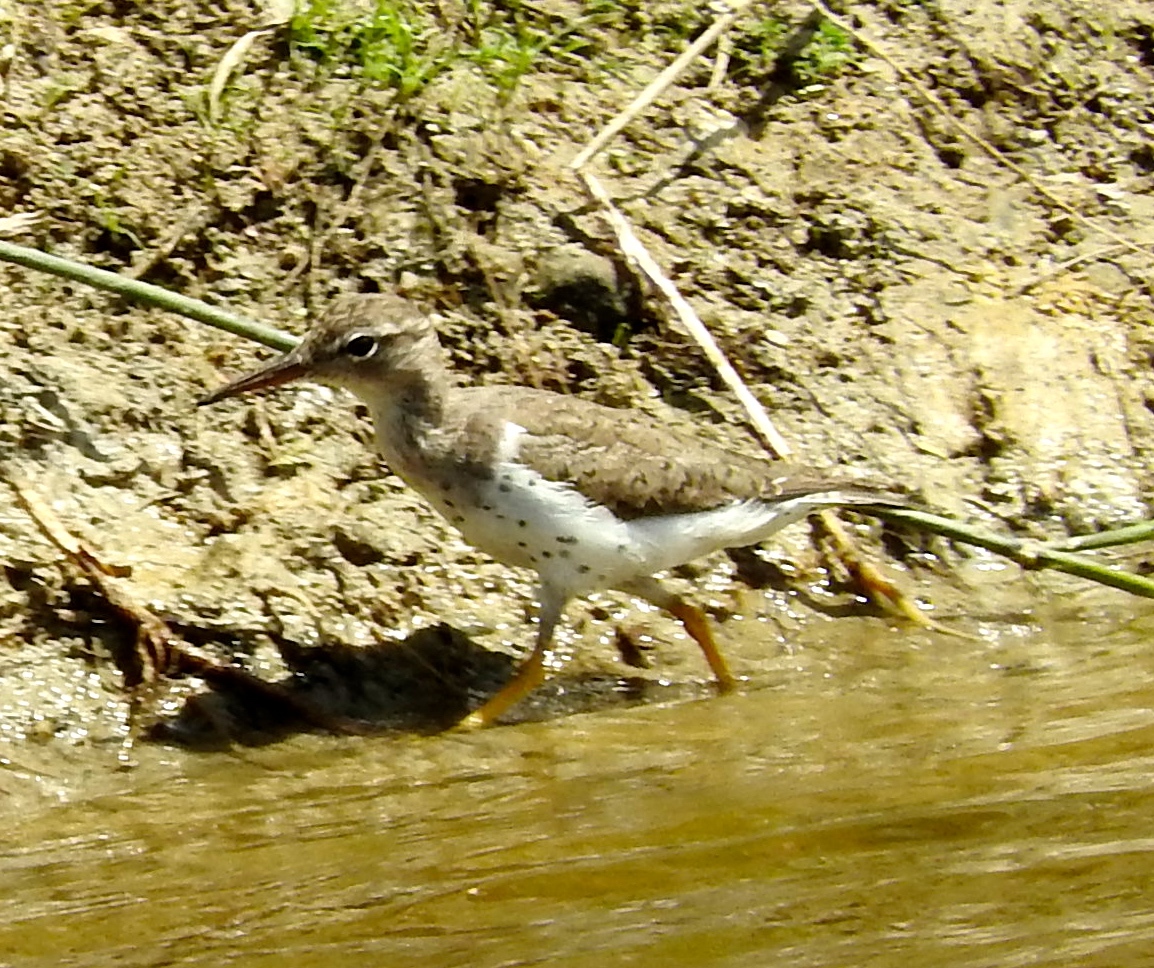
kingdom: Animalia
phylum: Chordata
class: Aves
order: Charadriiformes
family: Scolopacidae
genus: Actitis
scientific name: Actitis macularius
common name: Spotted sandpiper
